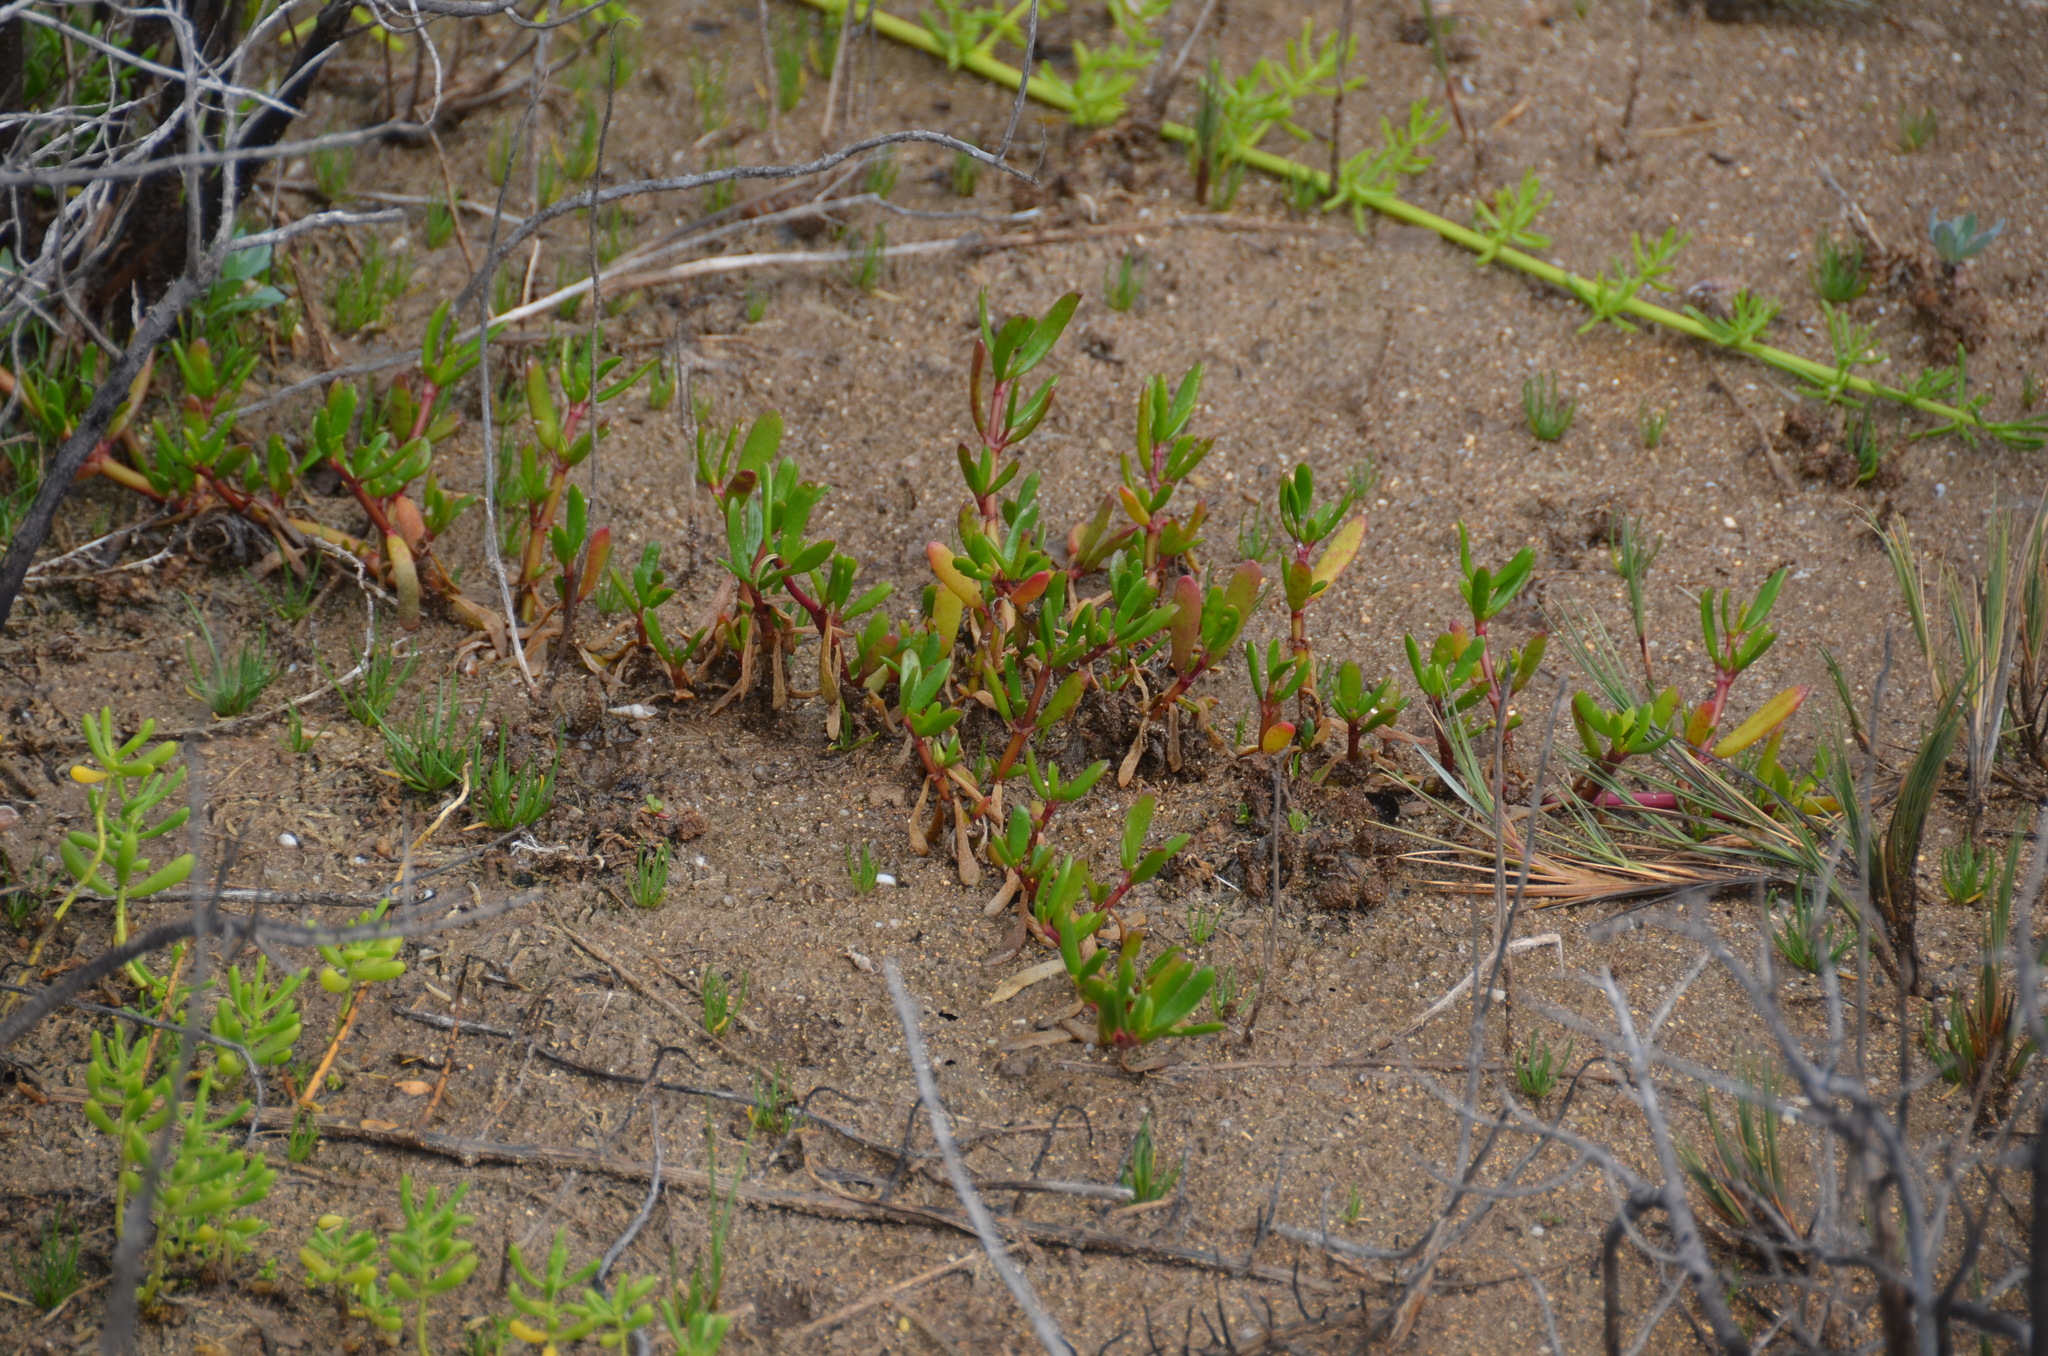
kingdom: Plantae
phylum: Tracheophyta
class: Magnoliopsida
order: Caryophyllales
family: Aizoaceae
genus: Sesuvium
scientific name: Sesuvium portulacastrum
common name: Sea-purslane
